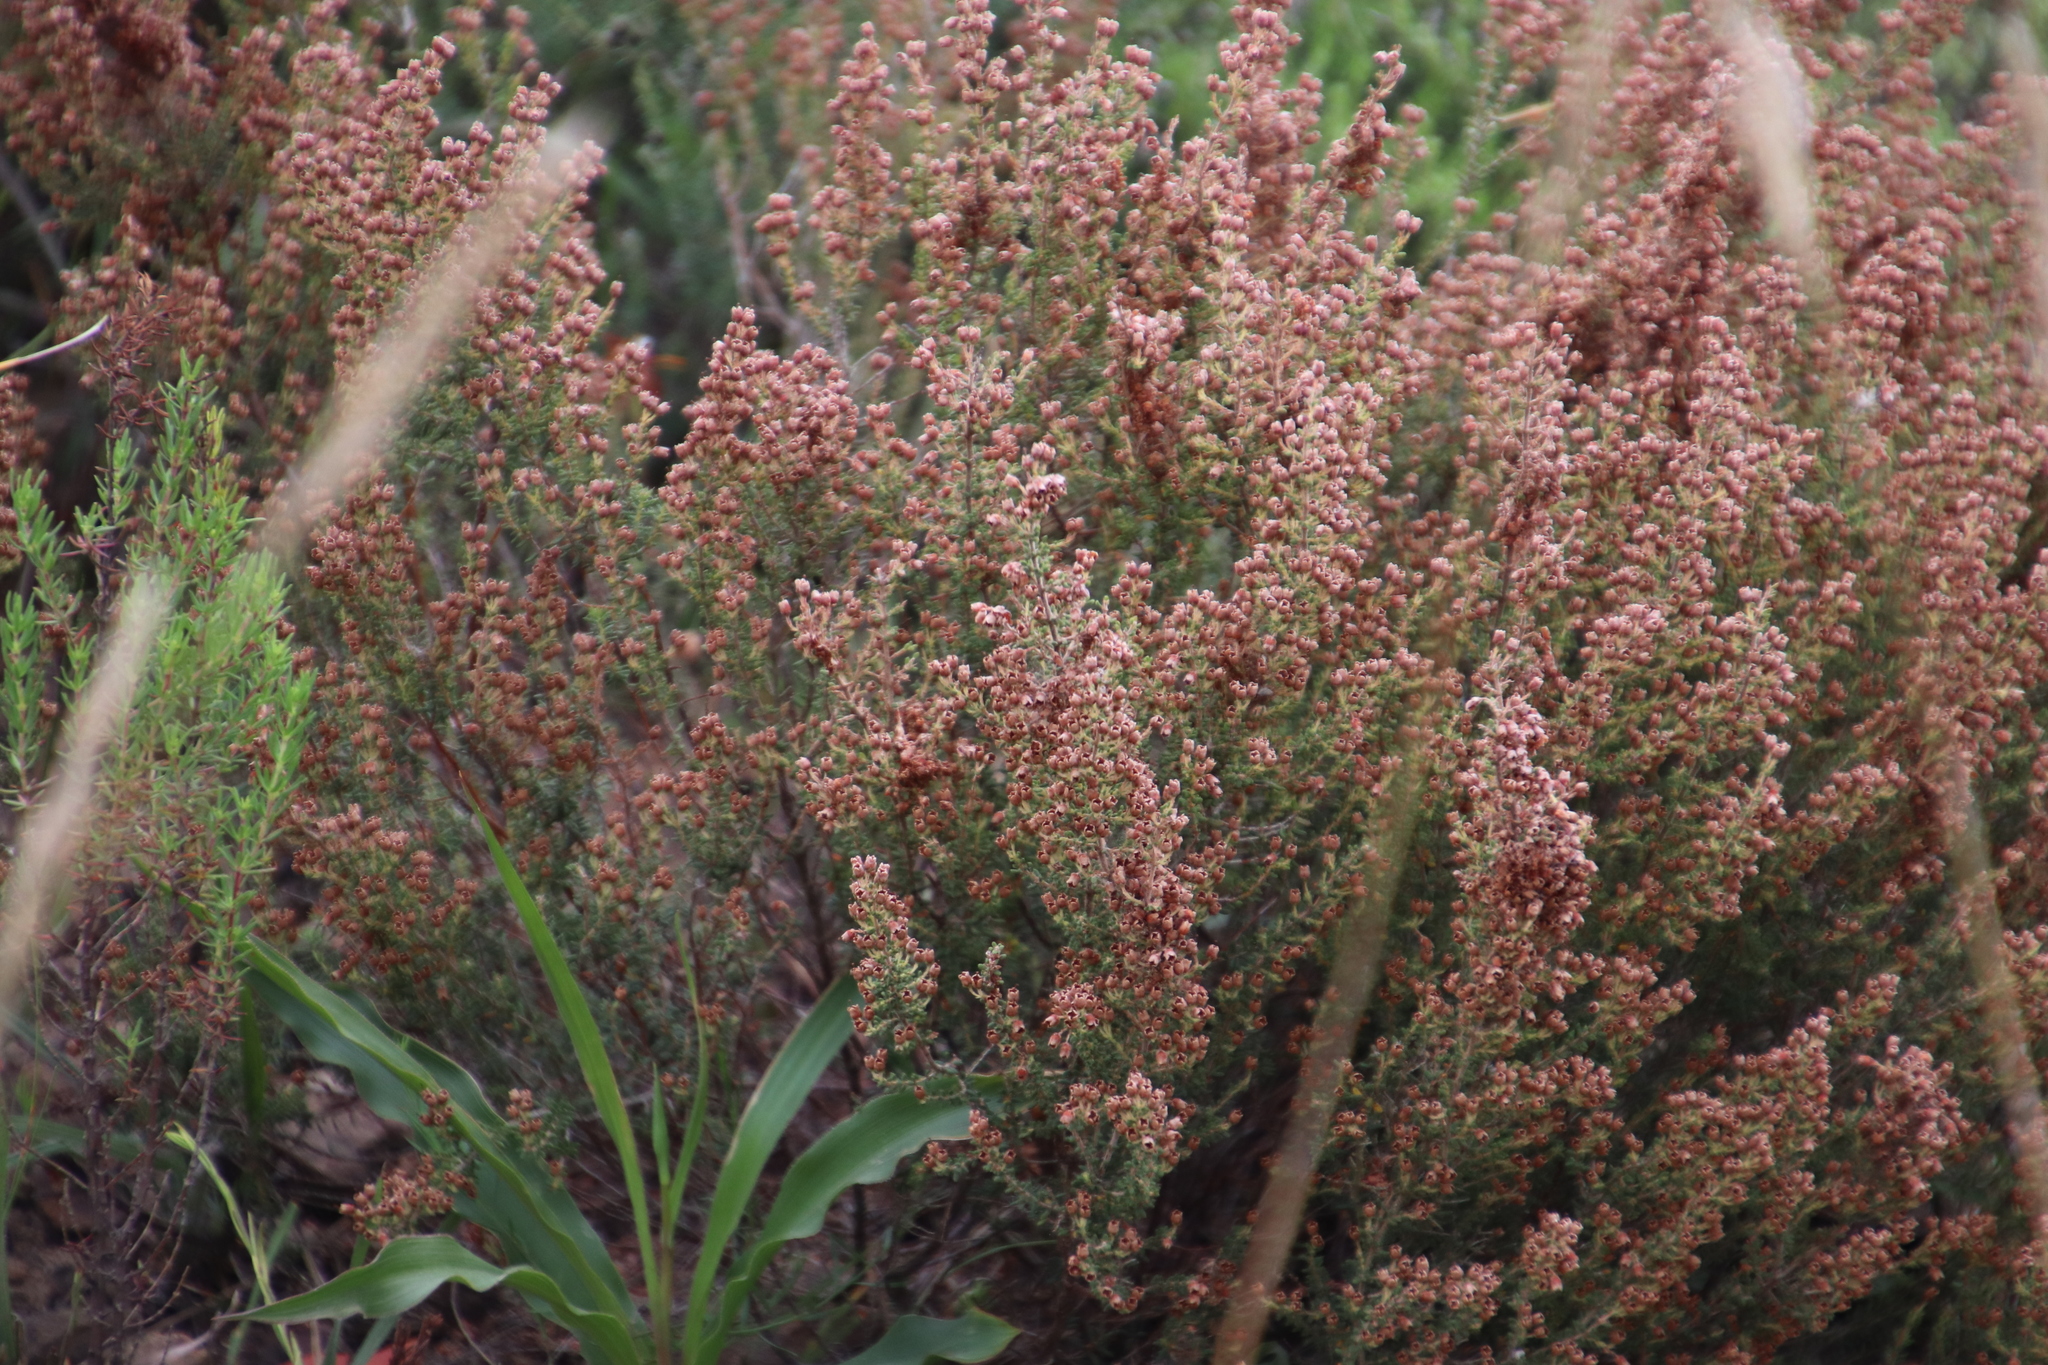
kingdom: Plantae
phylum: Tracheophyta
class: Magnoliopsida
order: Ericales
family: Ericaceae
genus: Erica
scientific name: Erica setacea
